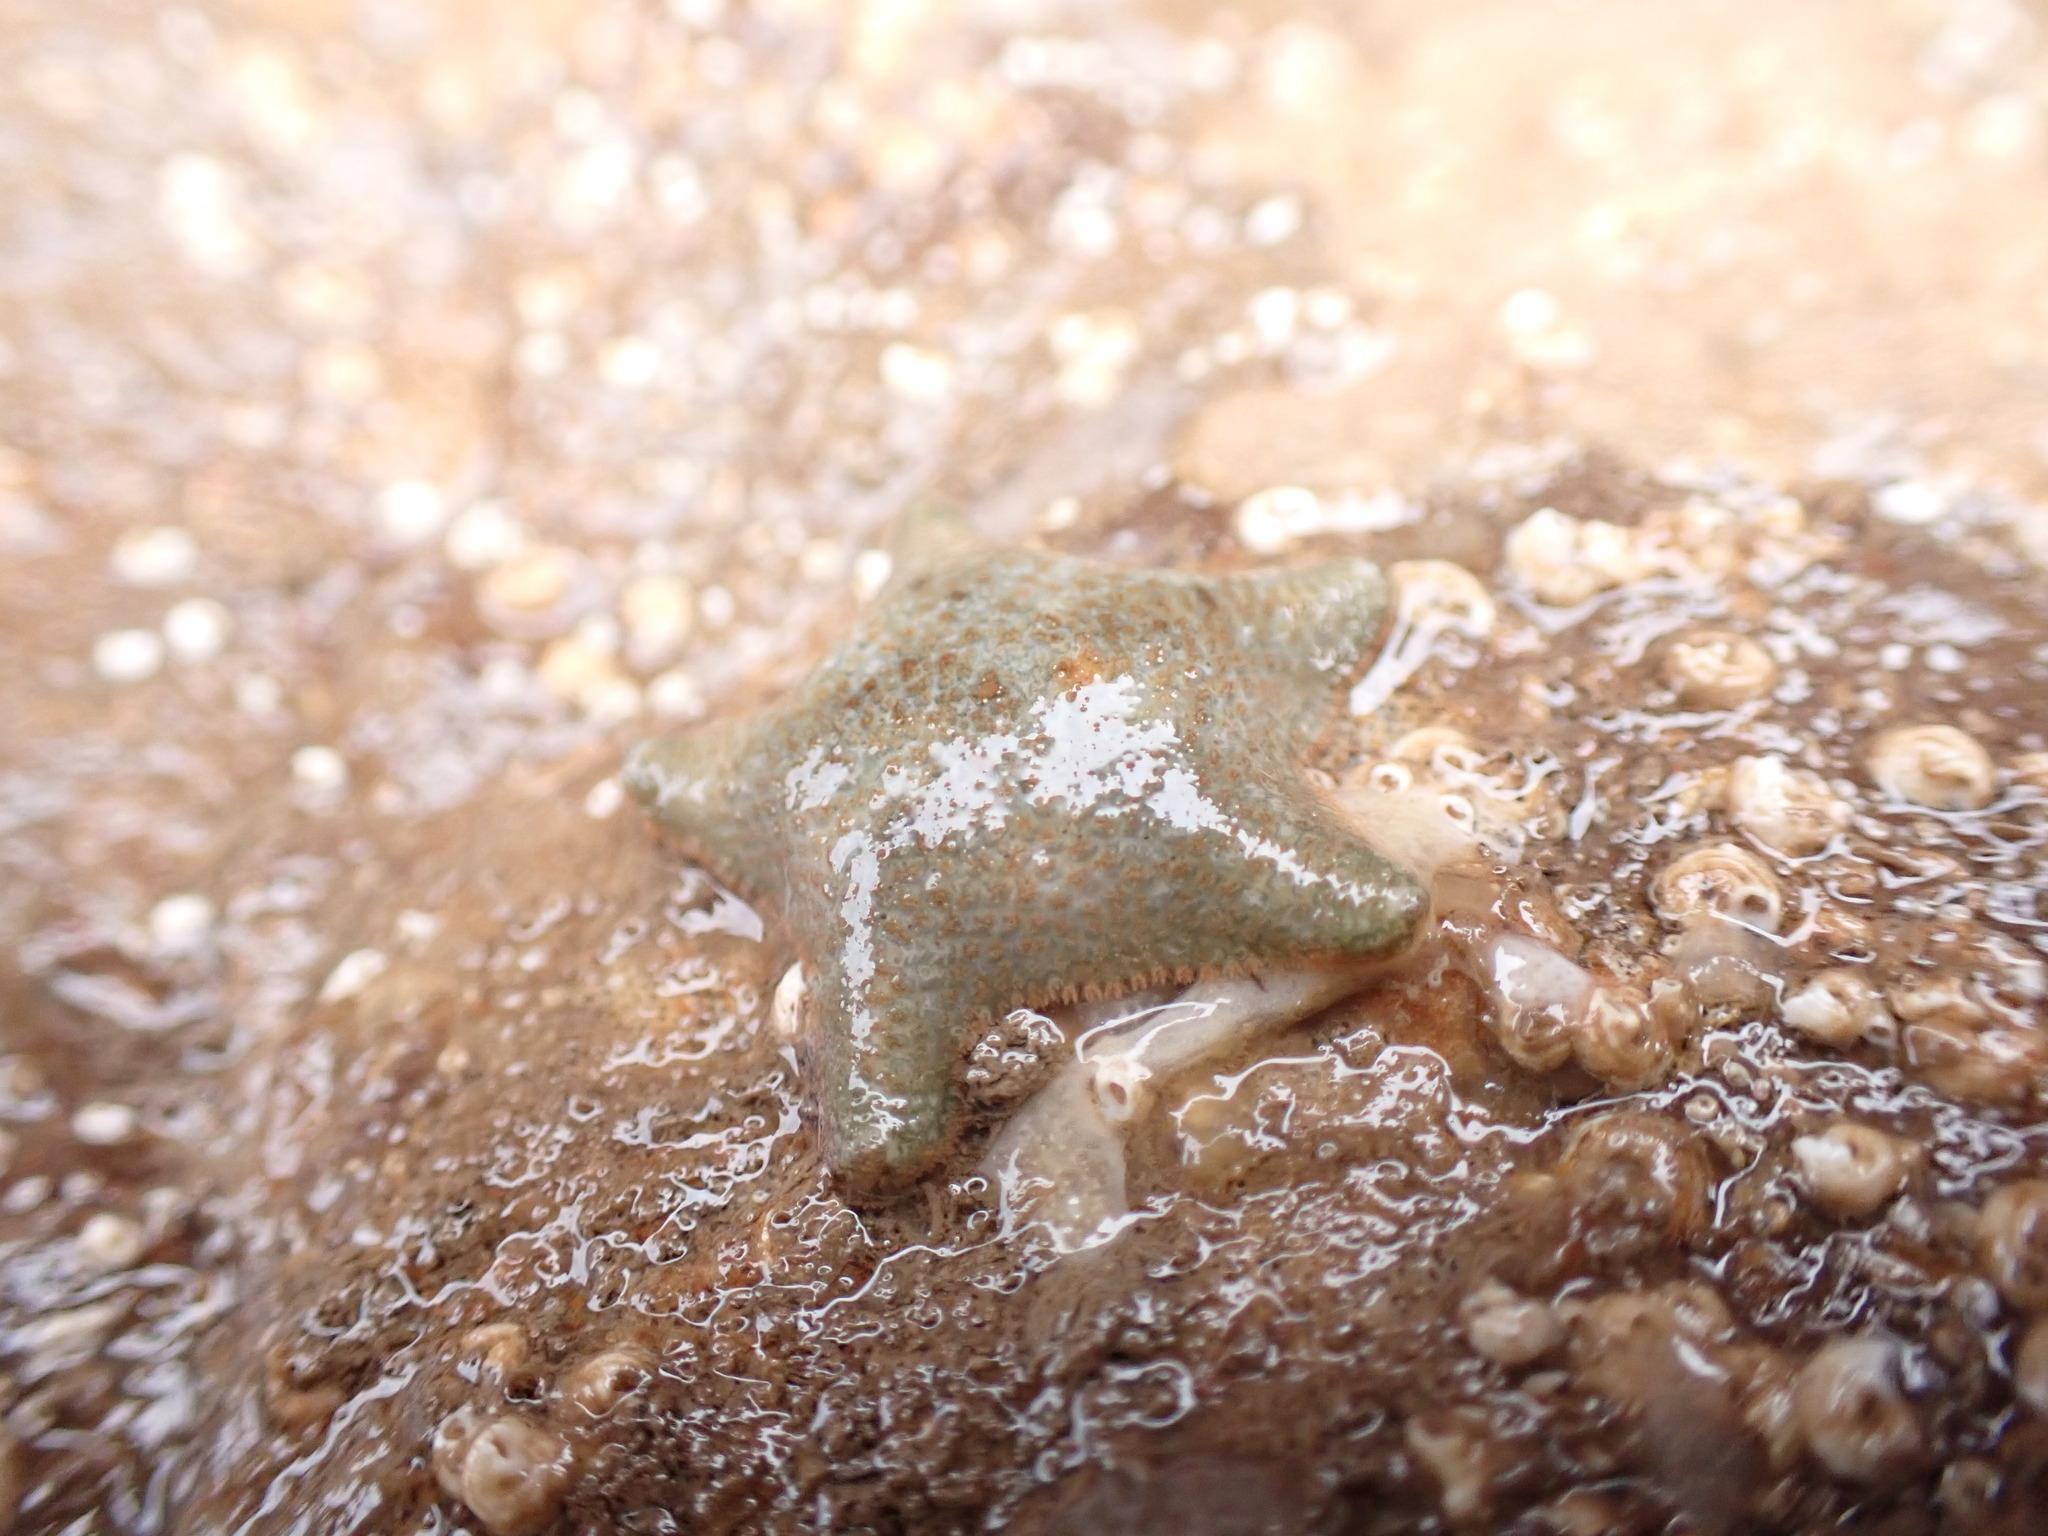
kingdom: Animalia
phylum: Echinodermata
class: Asteroidea
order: Valvatida
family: Asterinidae
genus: Asterina
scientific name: Asterina gibbosa
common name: Cushion star
